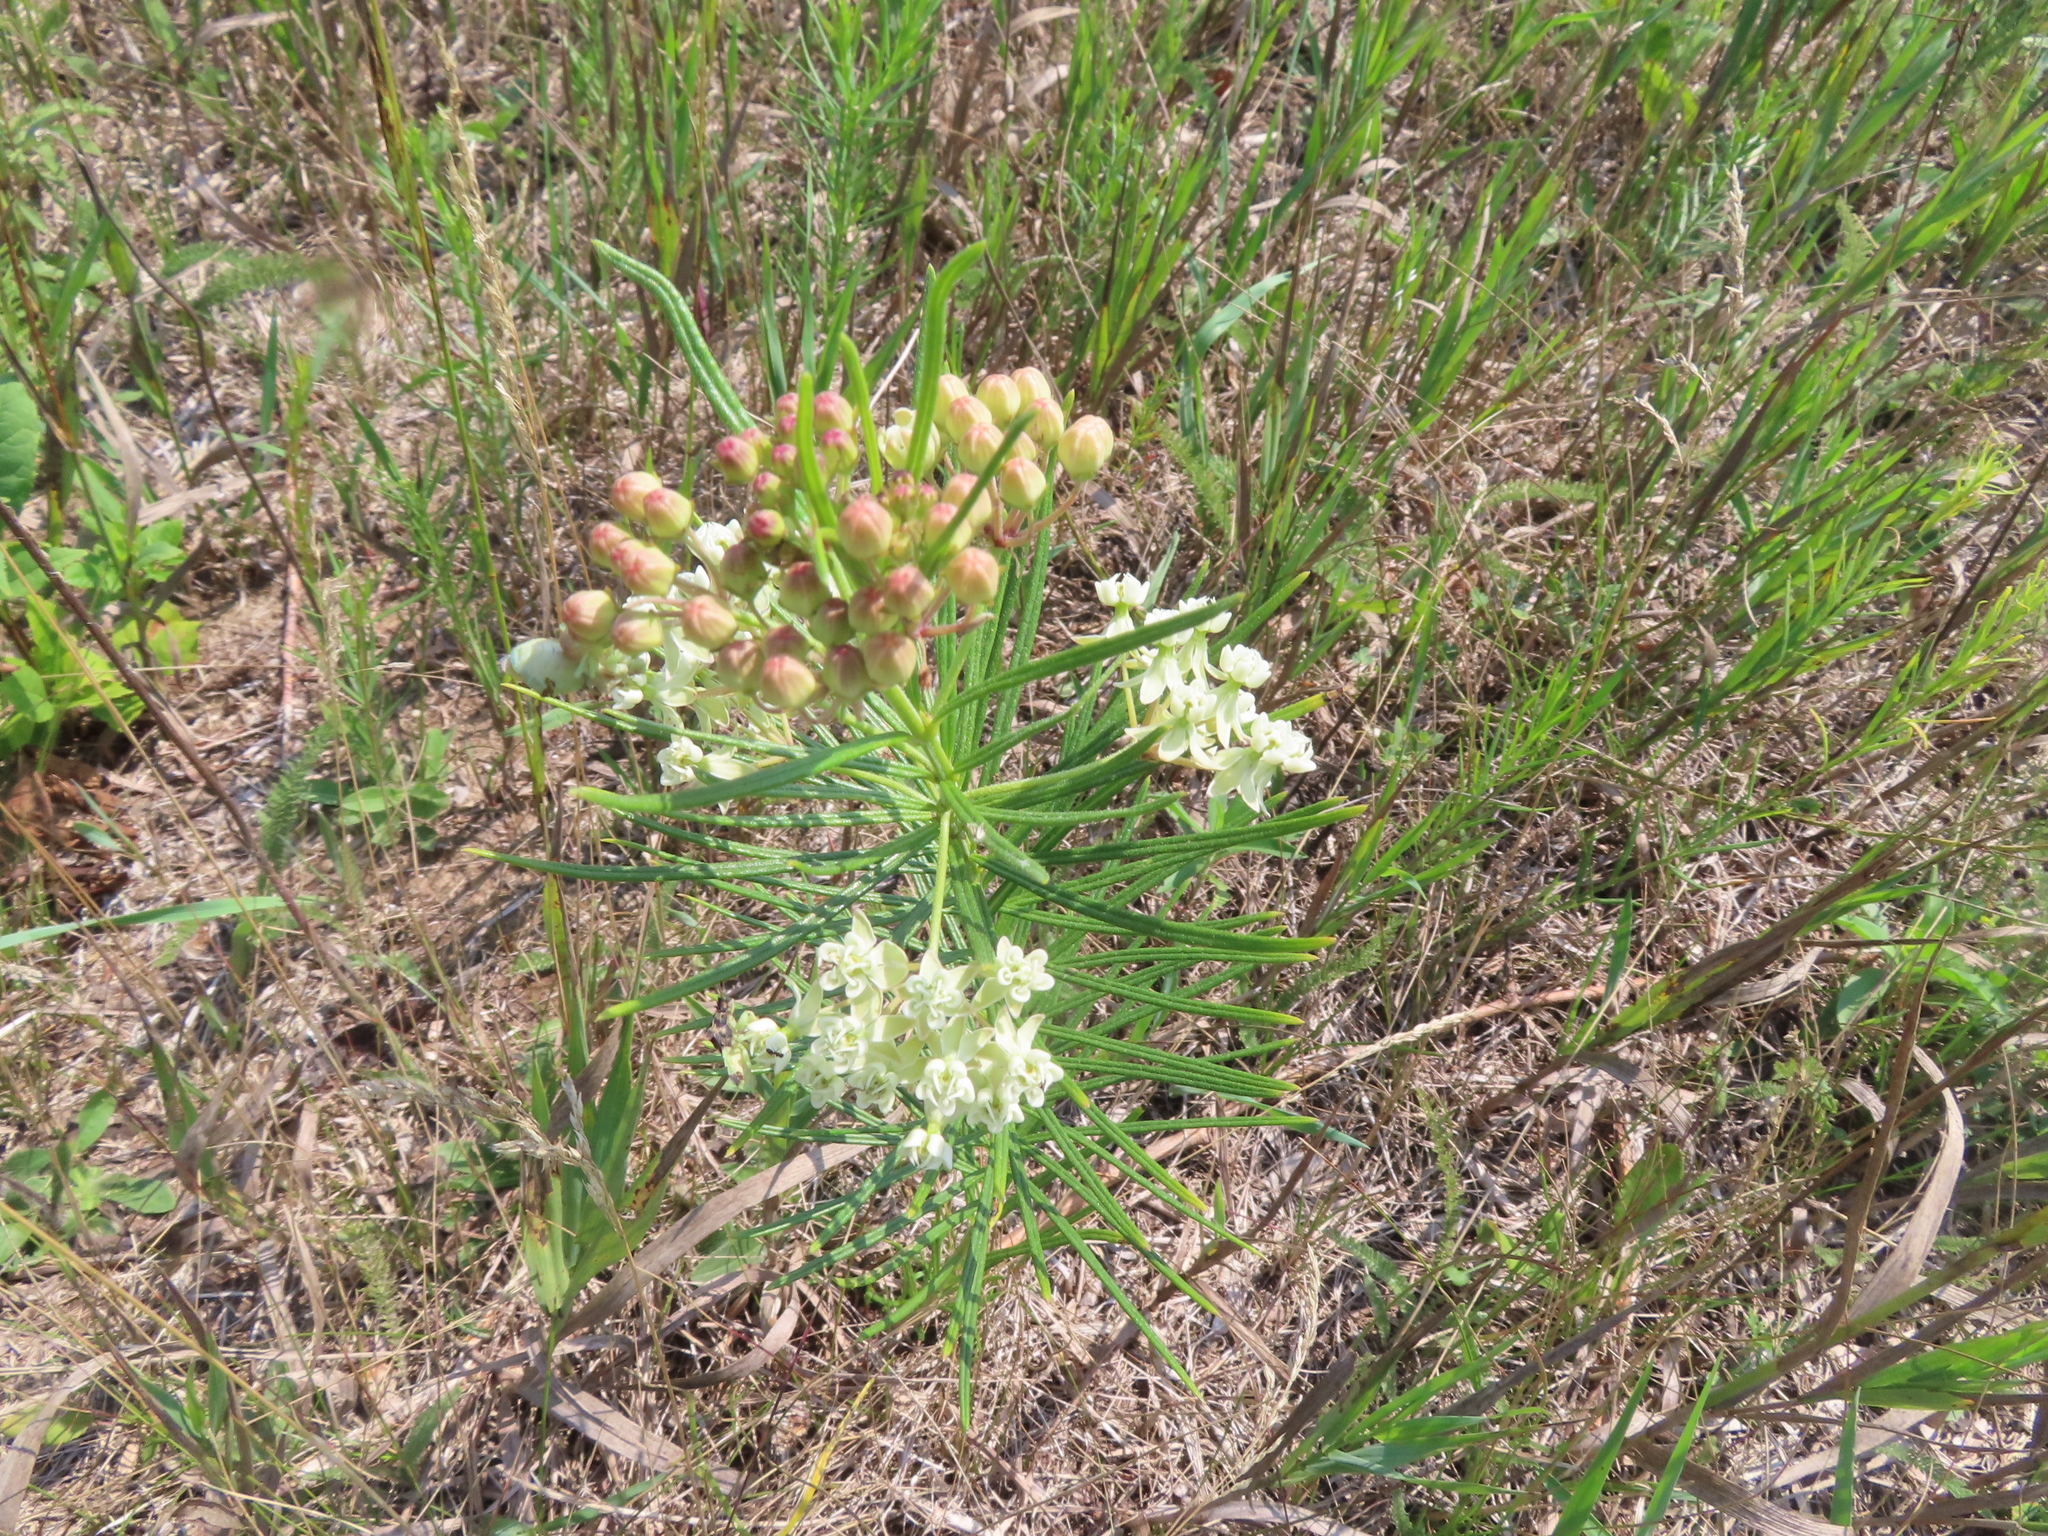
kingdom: Plantae
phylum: Tracheophyta
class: Magnoliopsida
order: Gentianales
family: Apocynaceae
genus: Asclepias
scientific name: Asclepias verticillata
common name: Eastern whorled milkweed
